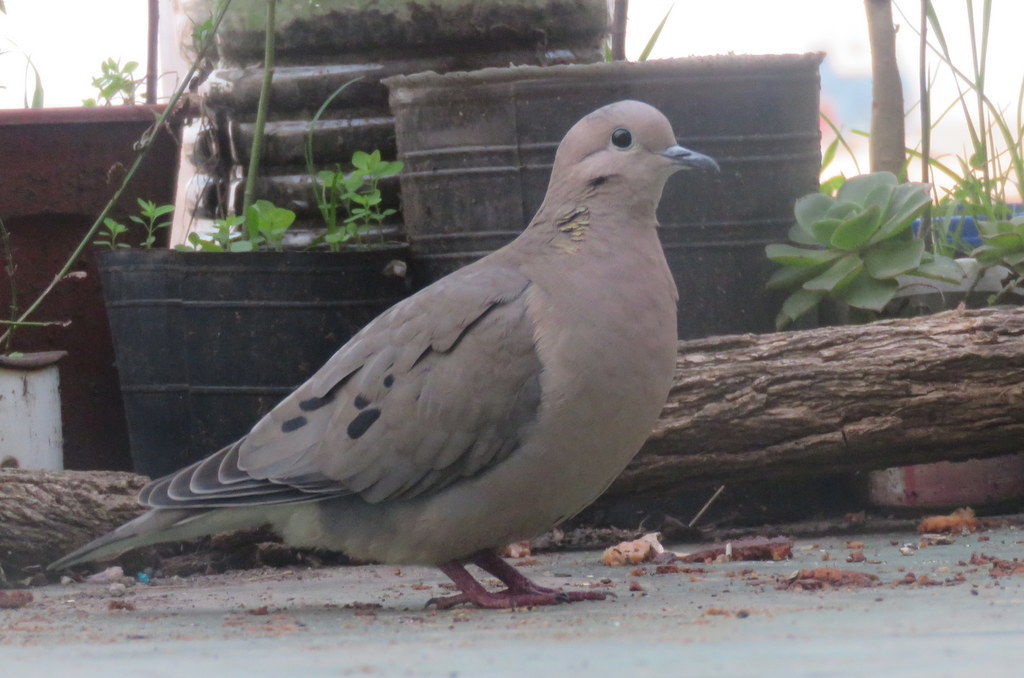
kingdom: Animalia
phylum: Chordata
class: Aves
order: Columbiformes
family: Columbidae
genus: Zenaida
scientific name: Zenaida auriculata
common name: Eared dove
